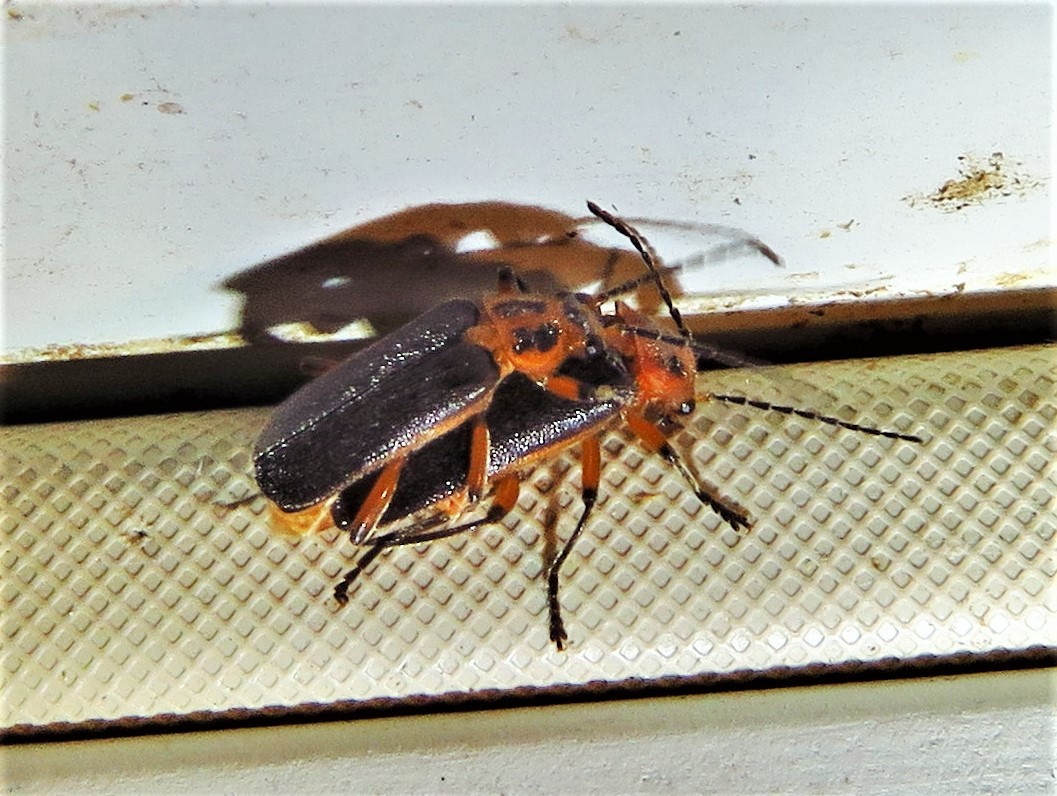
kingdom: Animalia
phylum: Arthropoda
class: Insecta
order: Coleoptera
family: Cantharidae
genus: Atalantycha
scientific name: Atalantycha bilineata
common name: Two-lined leatherwing
